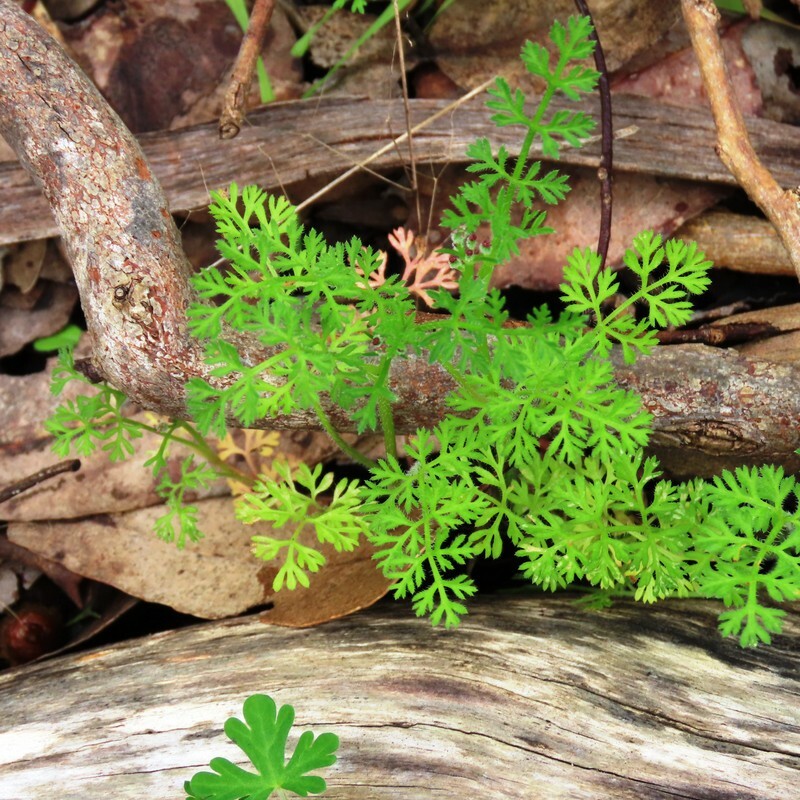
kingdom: Plantae
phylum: Tracheophyta
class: Magnoliopsida
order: Apiales
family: Apiaceae
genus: Daucus
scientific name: Daucus glochidiatus
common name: Australian carrot
